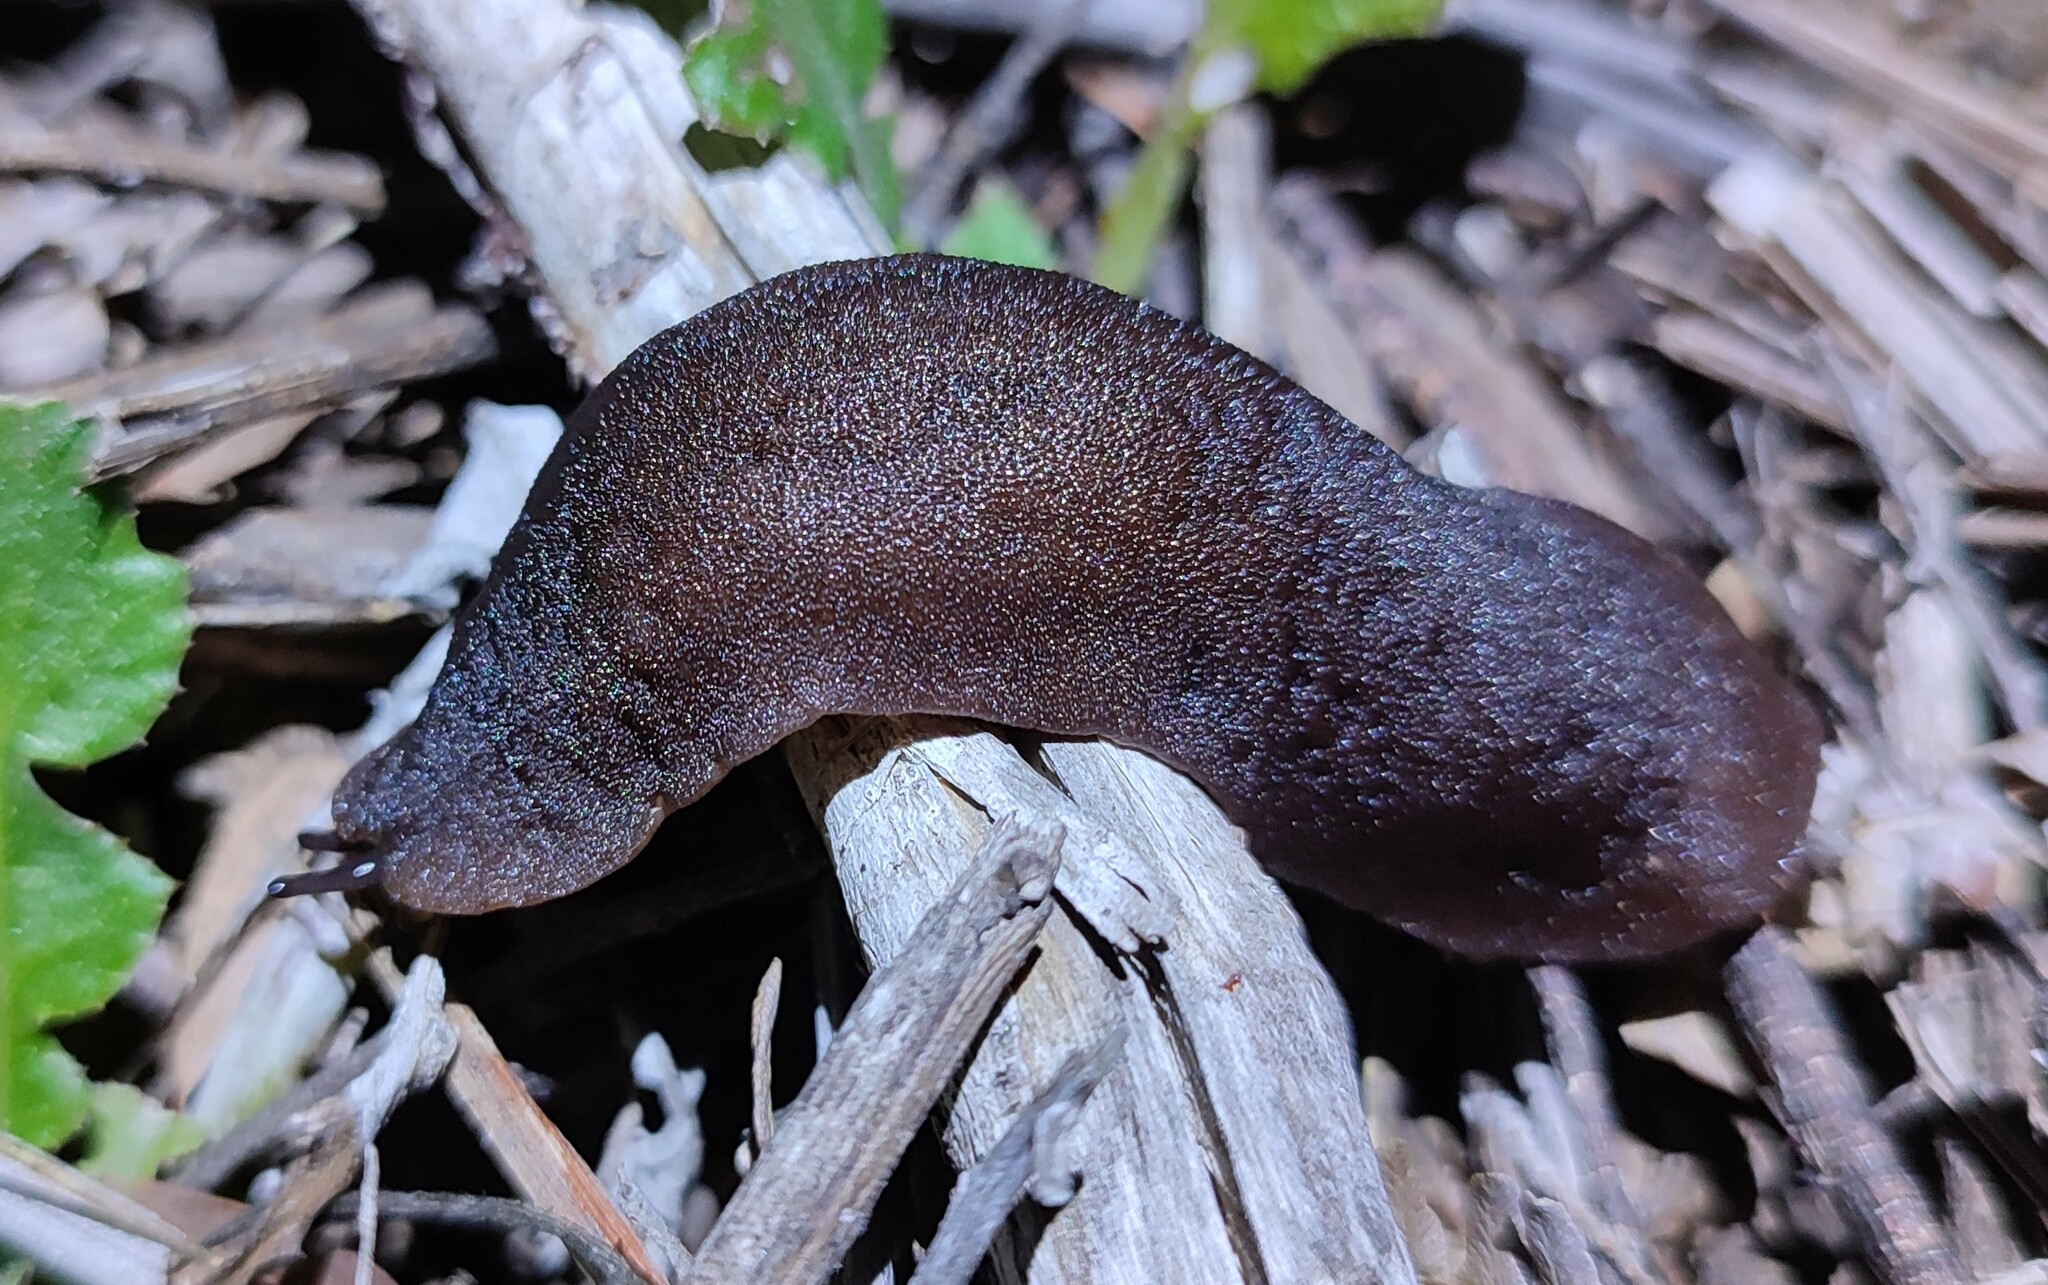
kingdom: Animalia
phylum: Mollusca
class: Gastropoda
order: Systellommatophora
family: Veronicellidae
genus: Laevicaulis
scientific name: Laevicaulis natalensis
